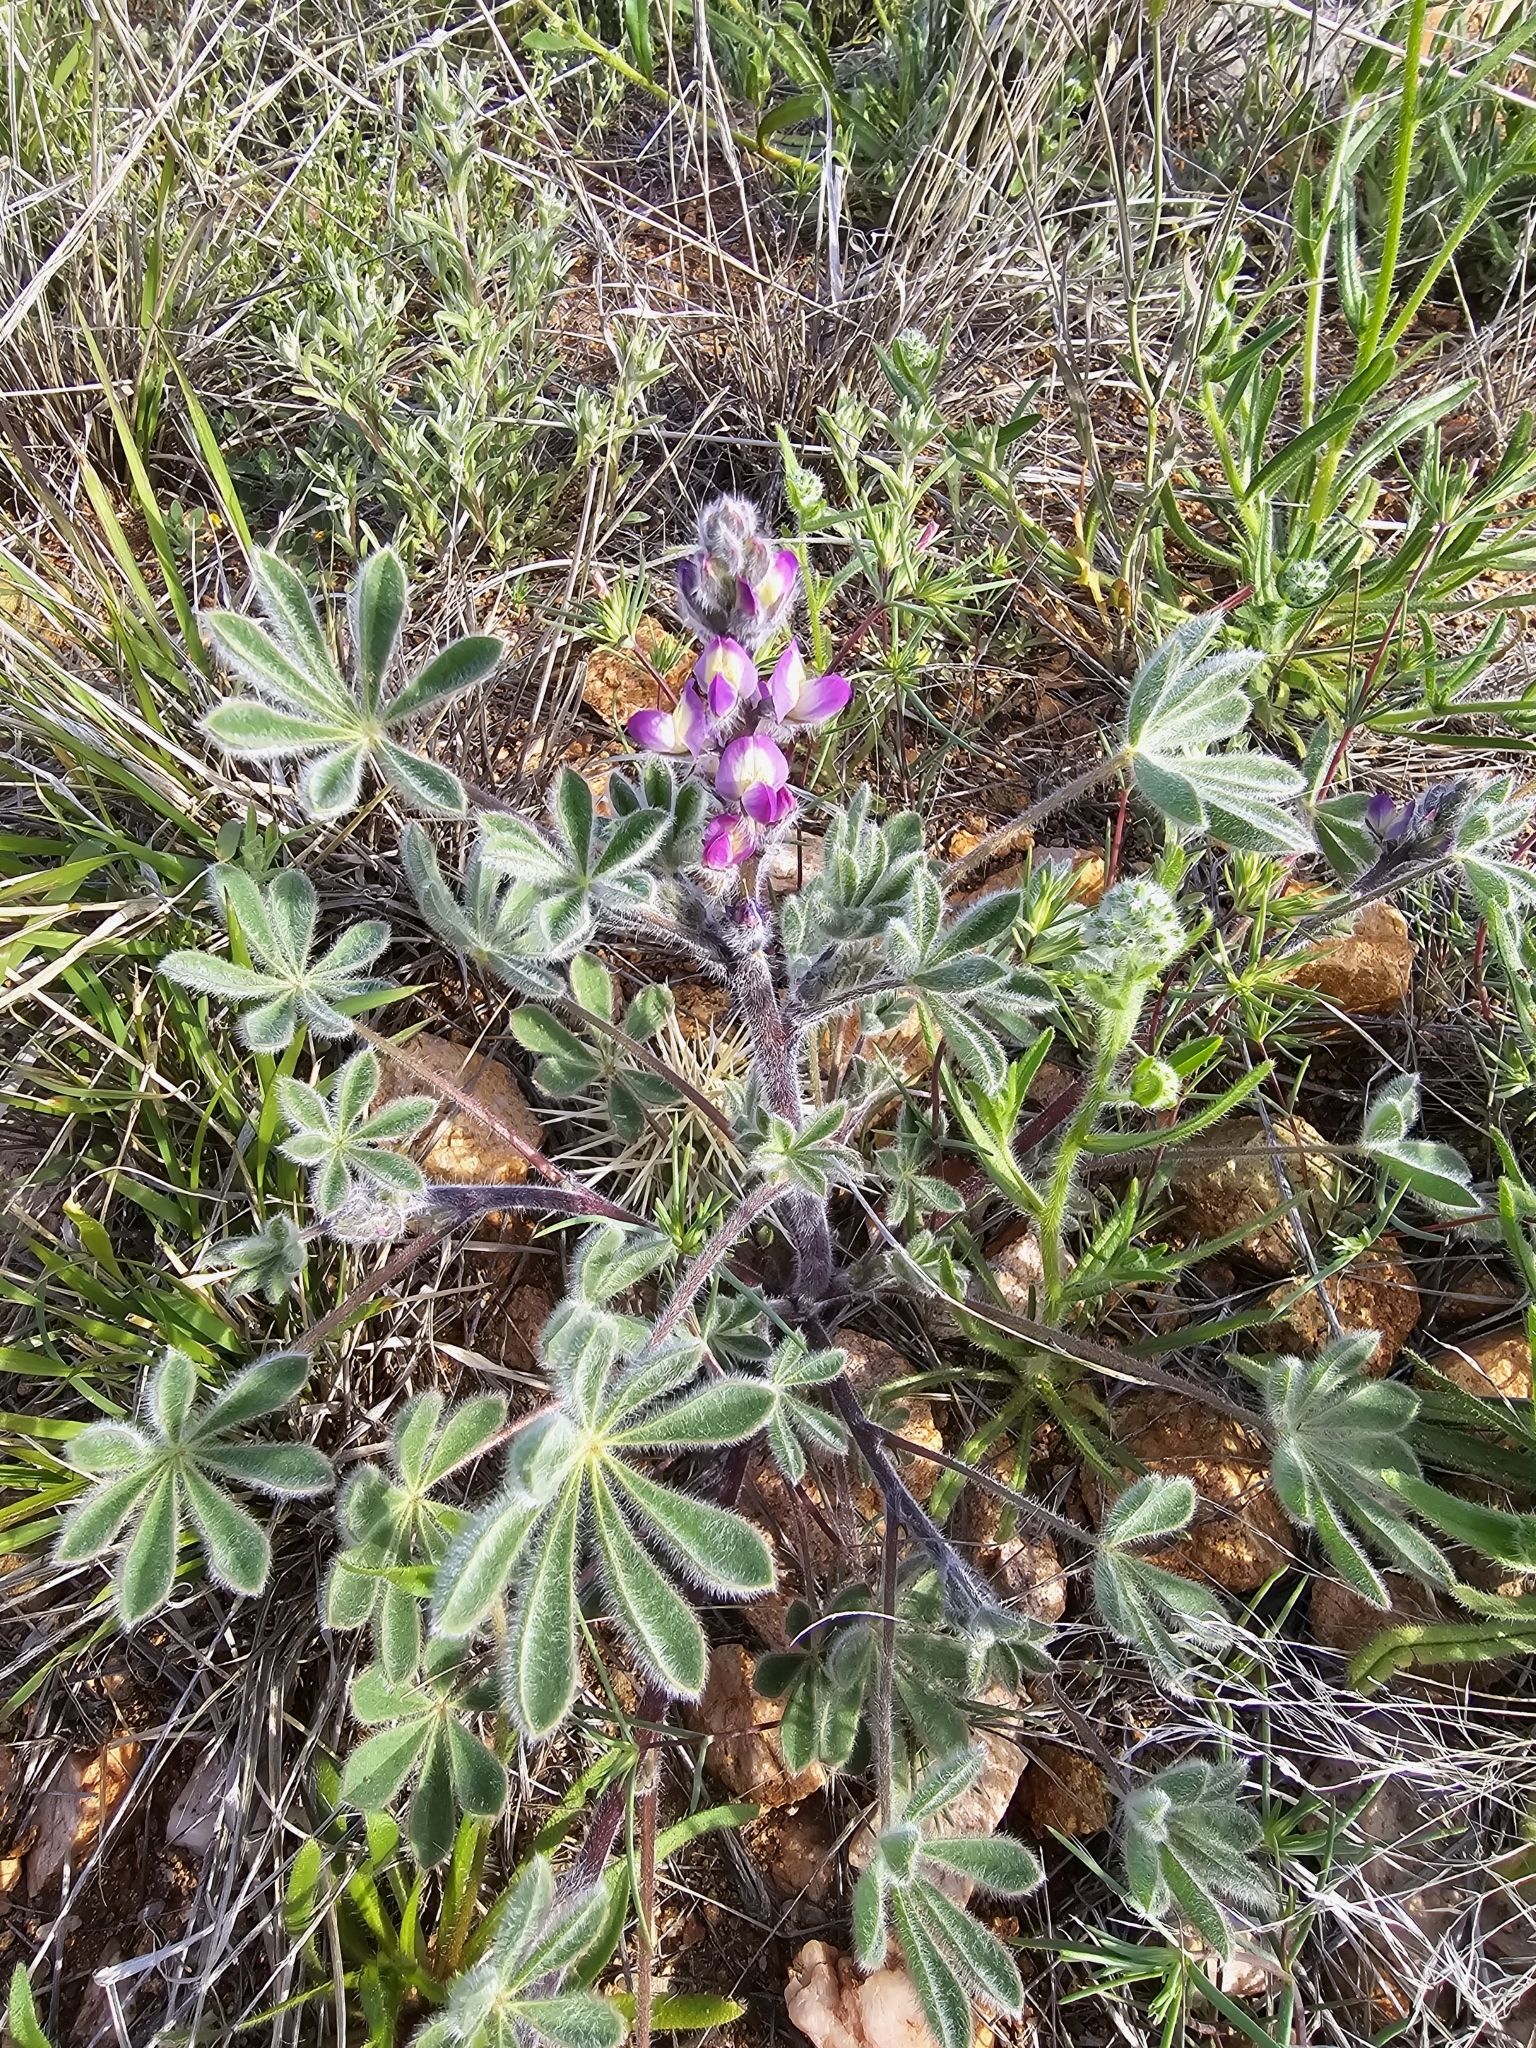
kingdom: Plantae
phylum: Tracheophyta
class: Magnoliopsida
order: Fabales
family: Fabaceae
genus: Lupinus
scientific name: Lupinus concinnus
